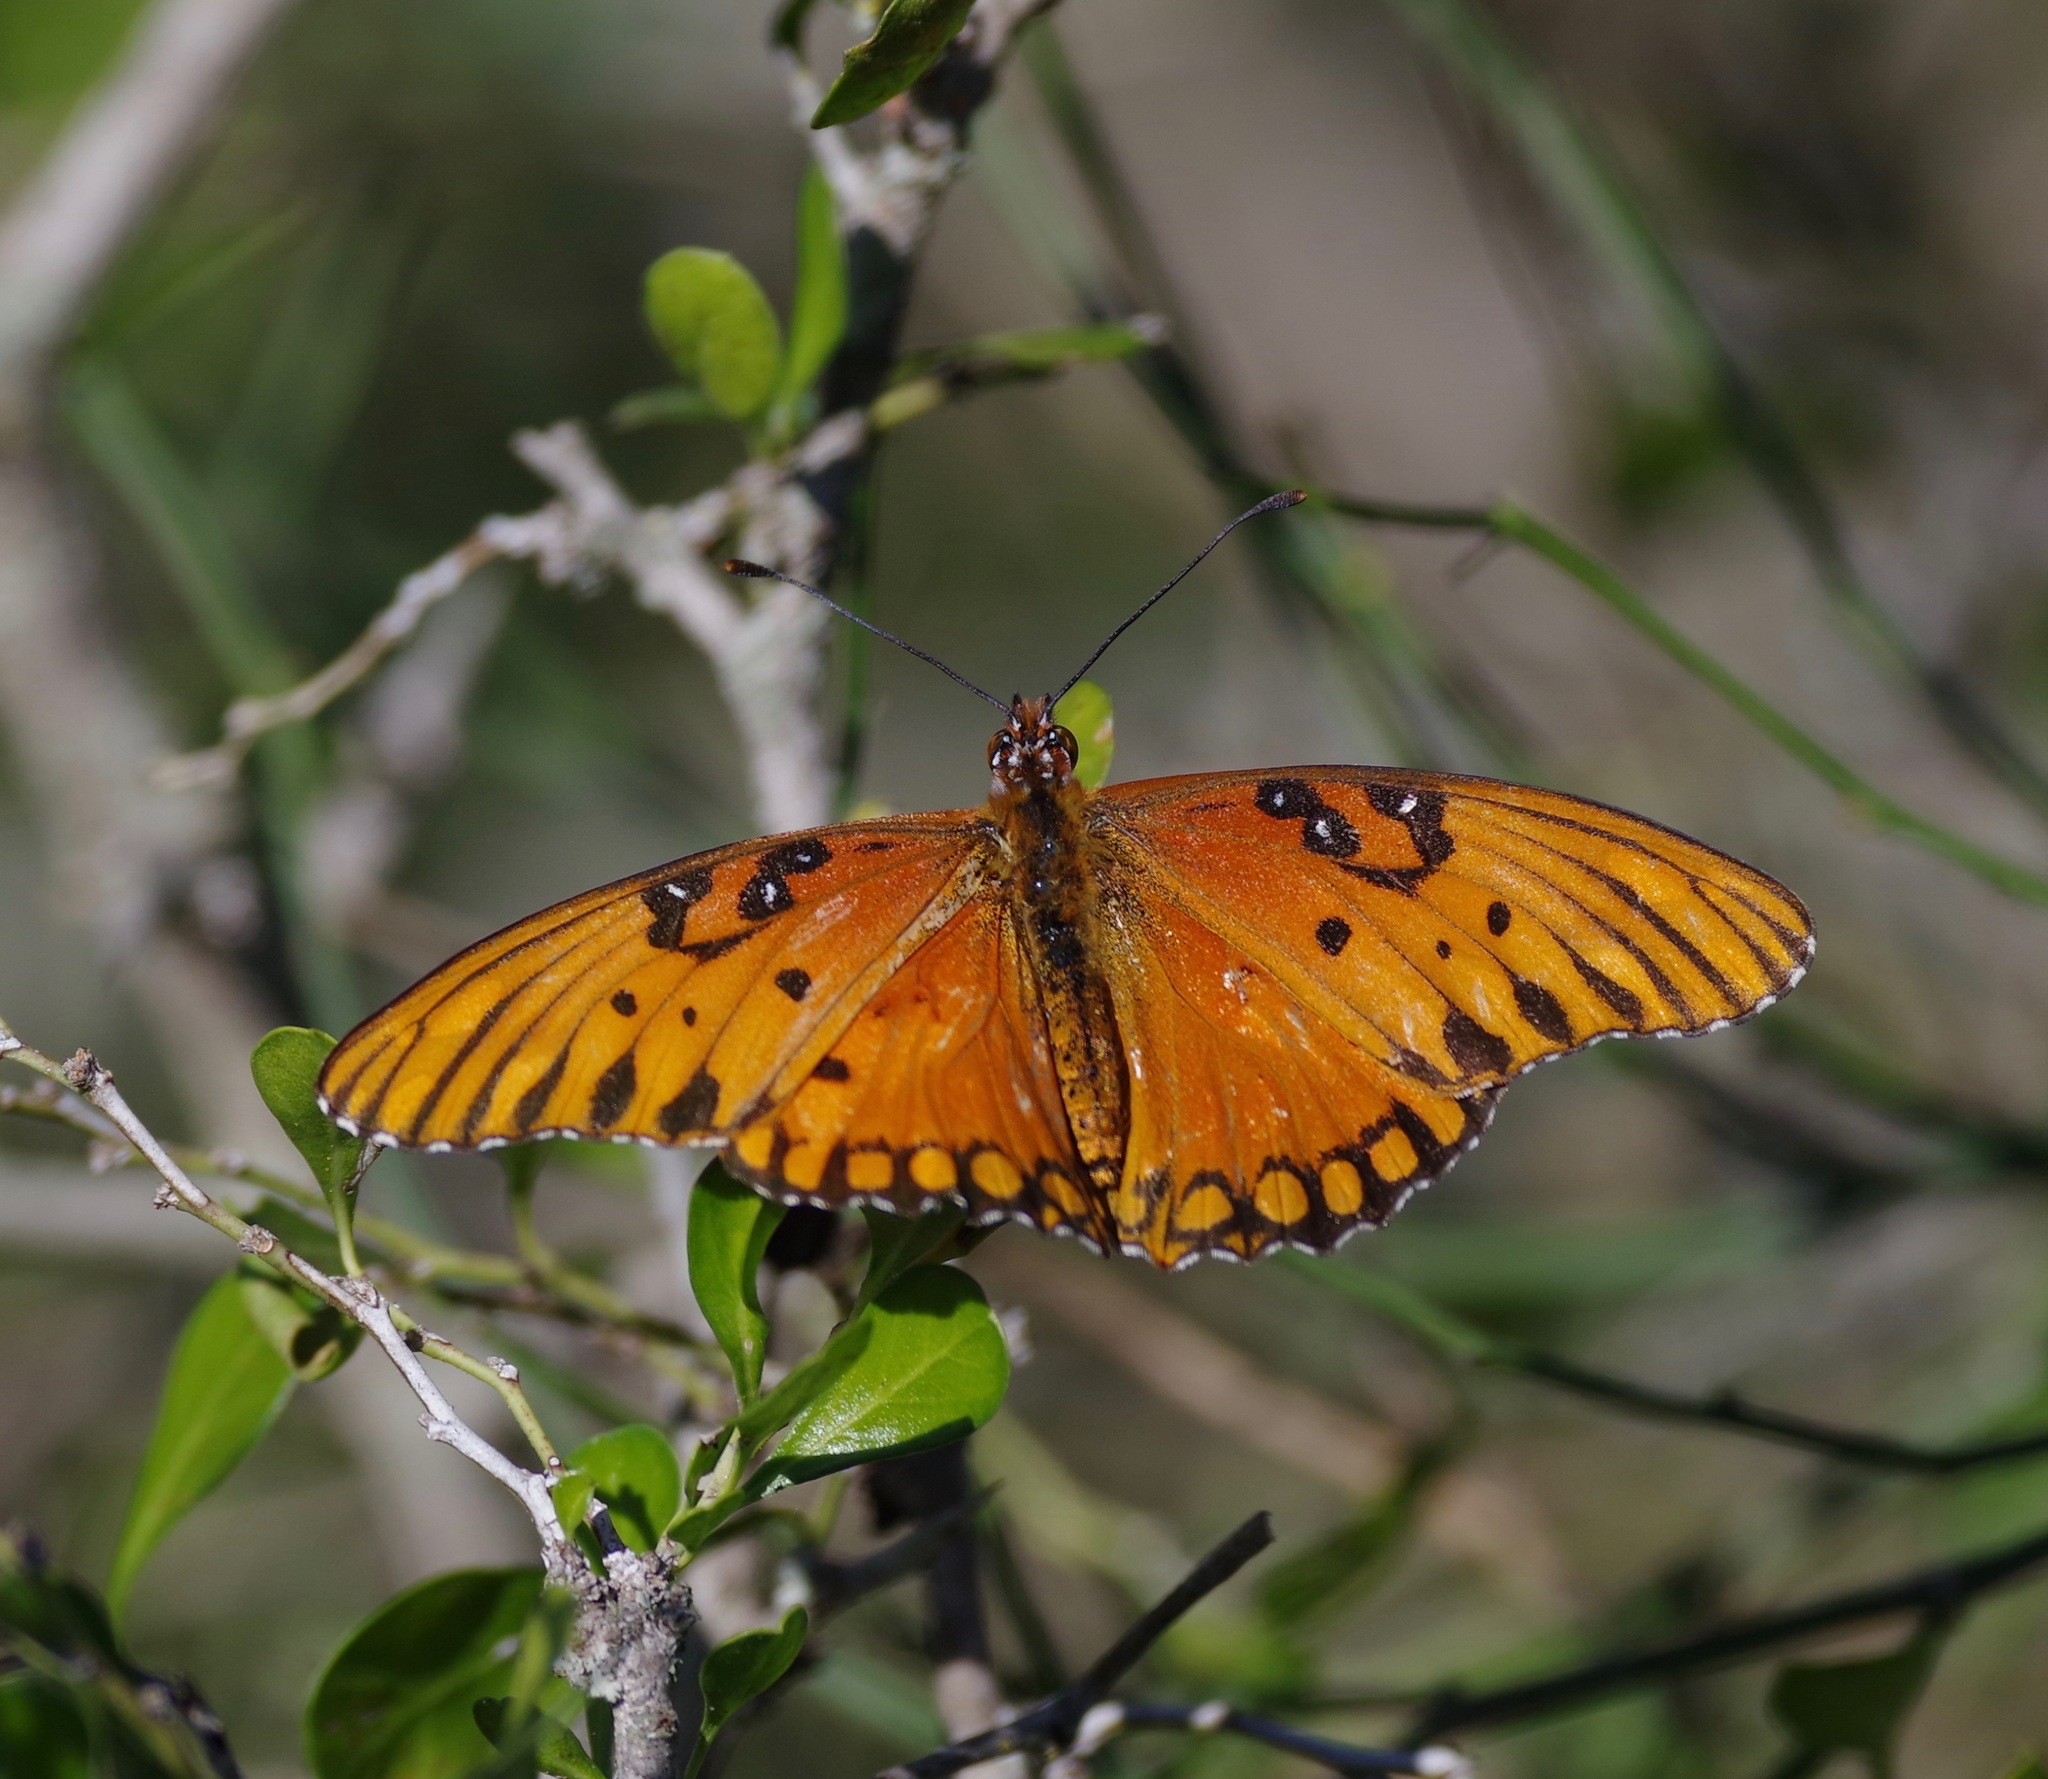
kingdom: Animalia
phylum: Arthropoda
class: Insecta
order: Lepidoptera
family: Nymphalidae
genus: Dione
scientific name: Dione vanillae
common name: Gulf fritillary
